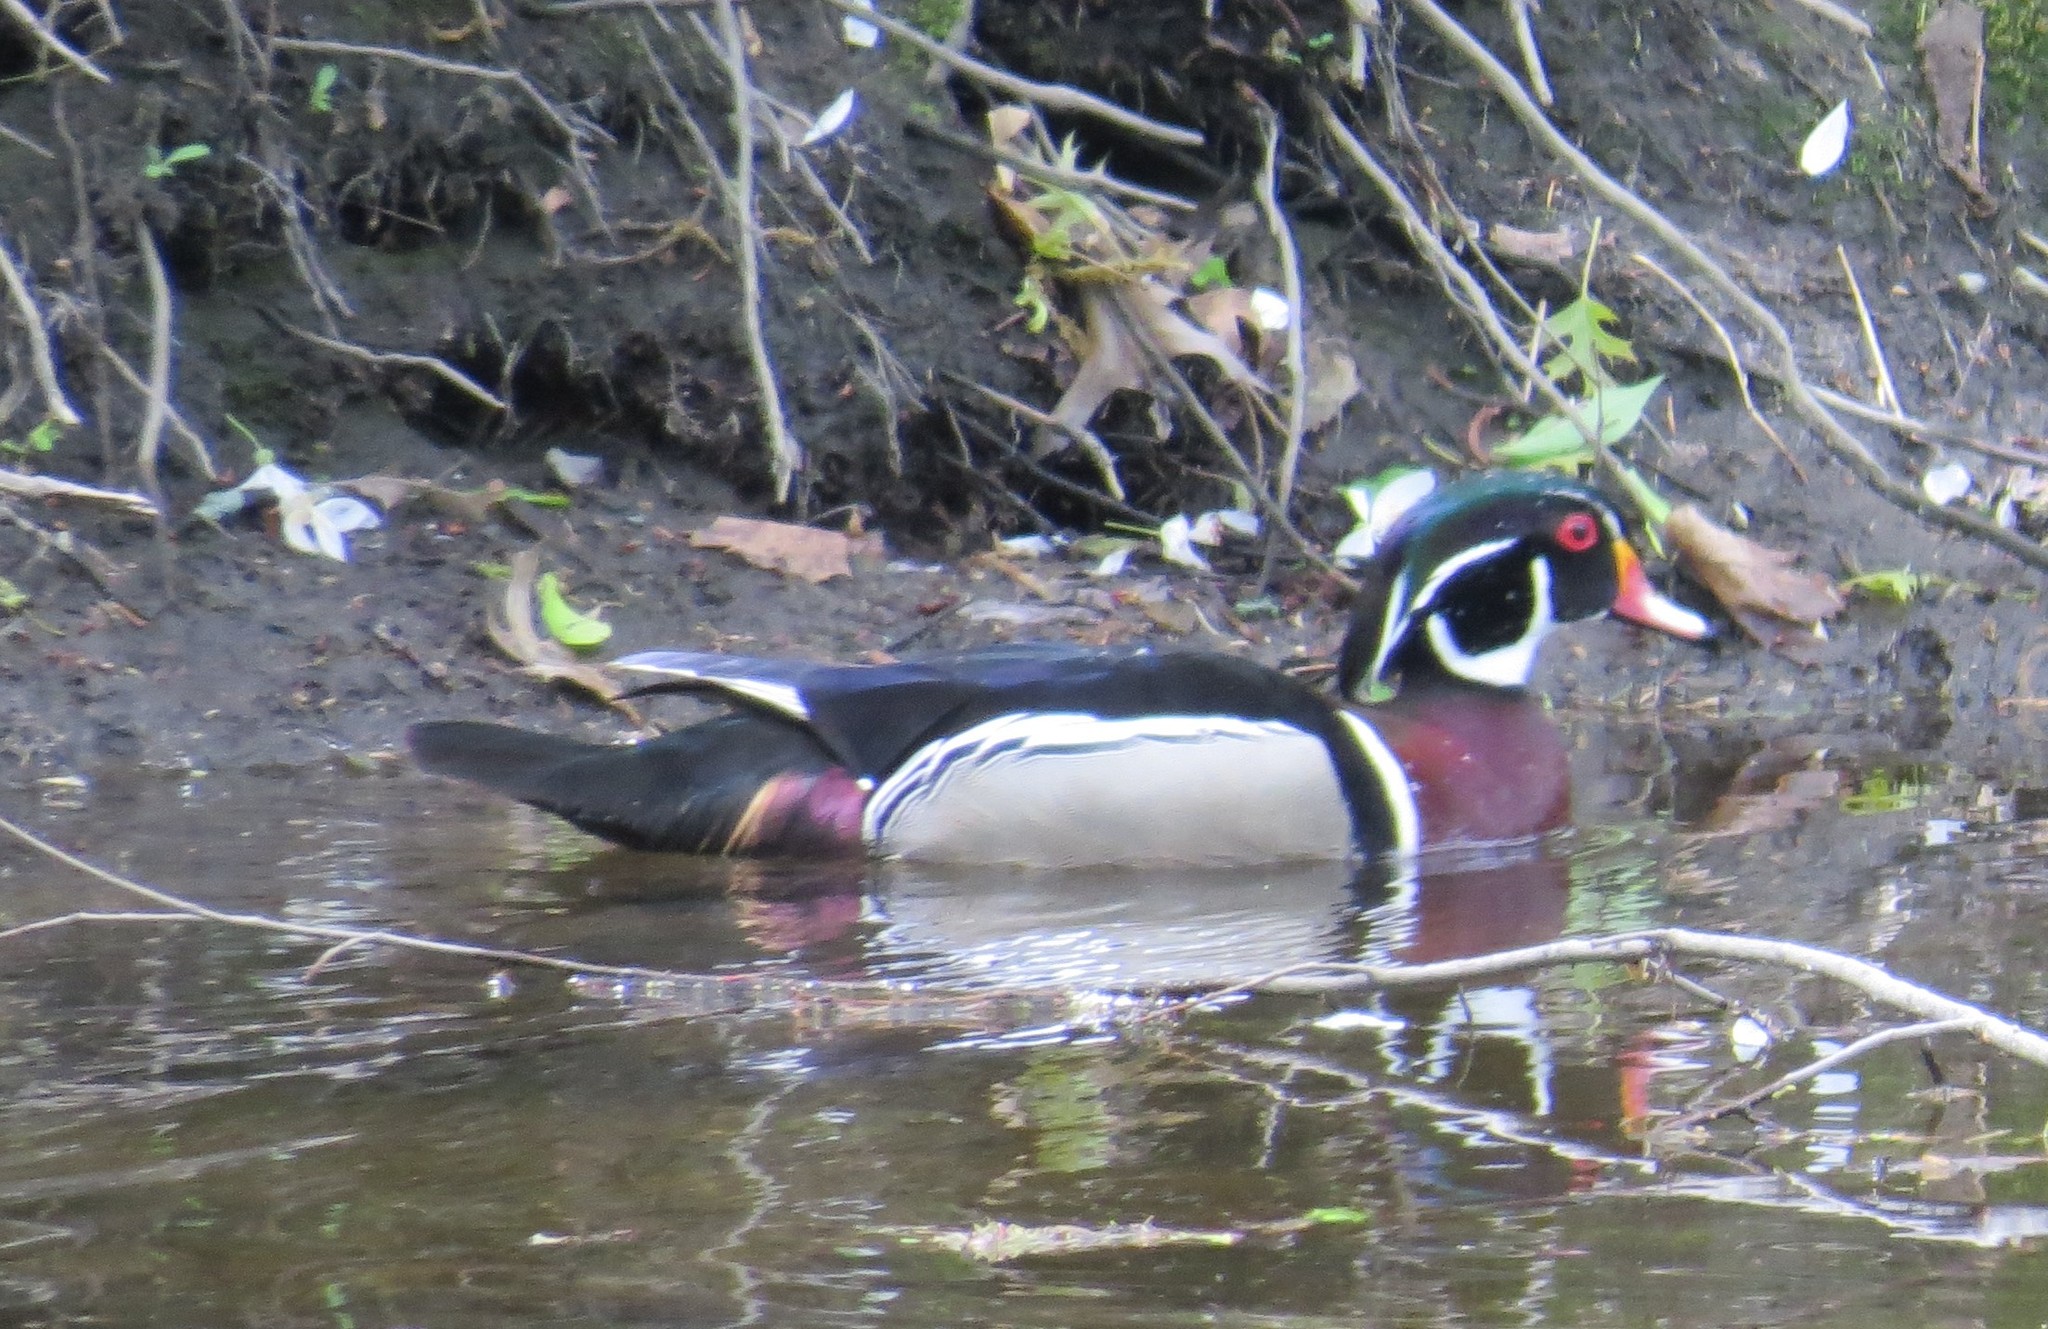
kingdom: Animalia
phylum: Chordata
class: Aves
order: Anseriformes
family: Anatidae
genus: Aix
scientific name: Aix sponsa
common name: Wood duck
